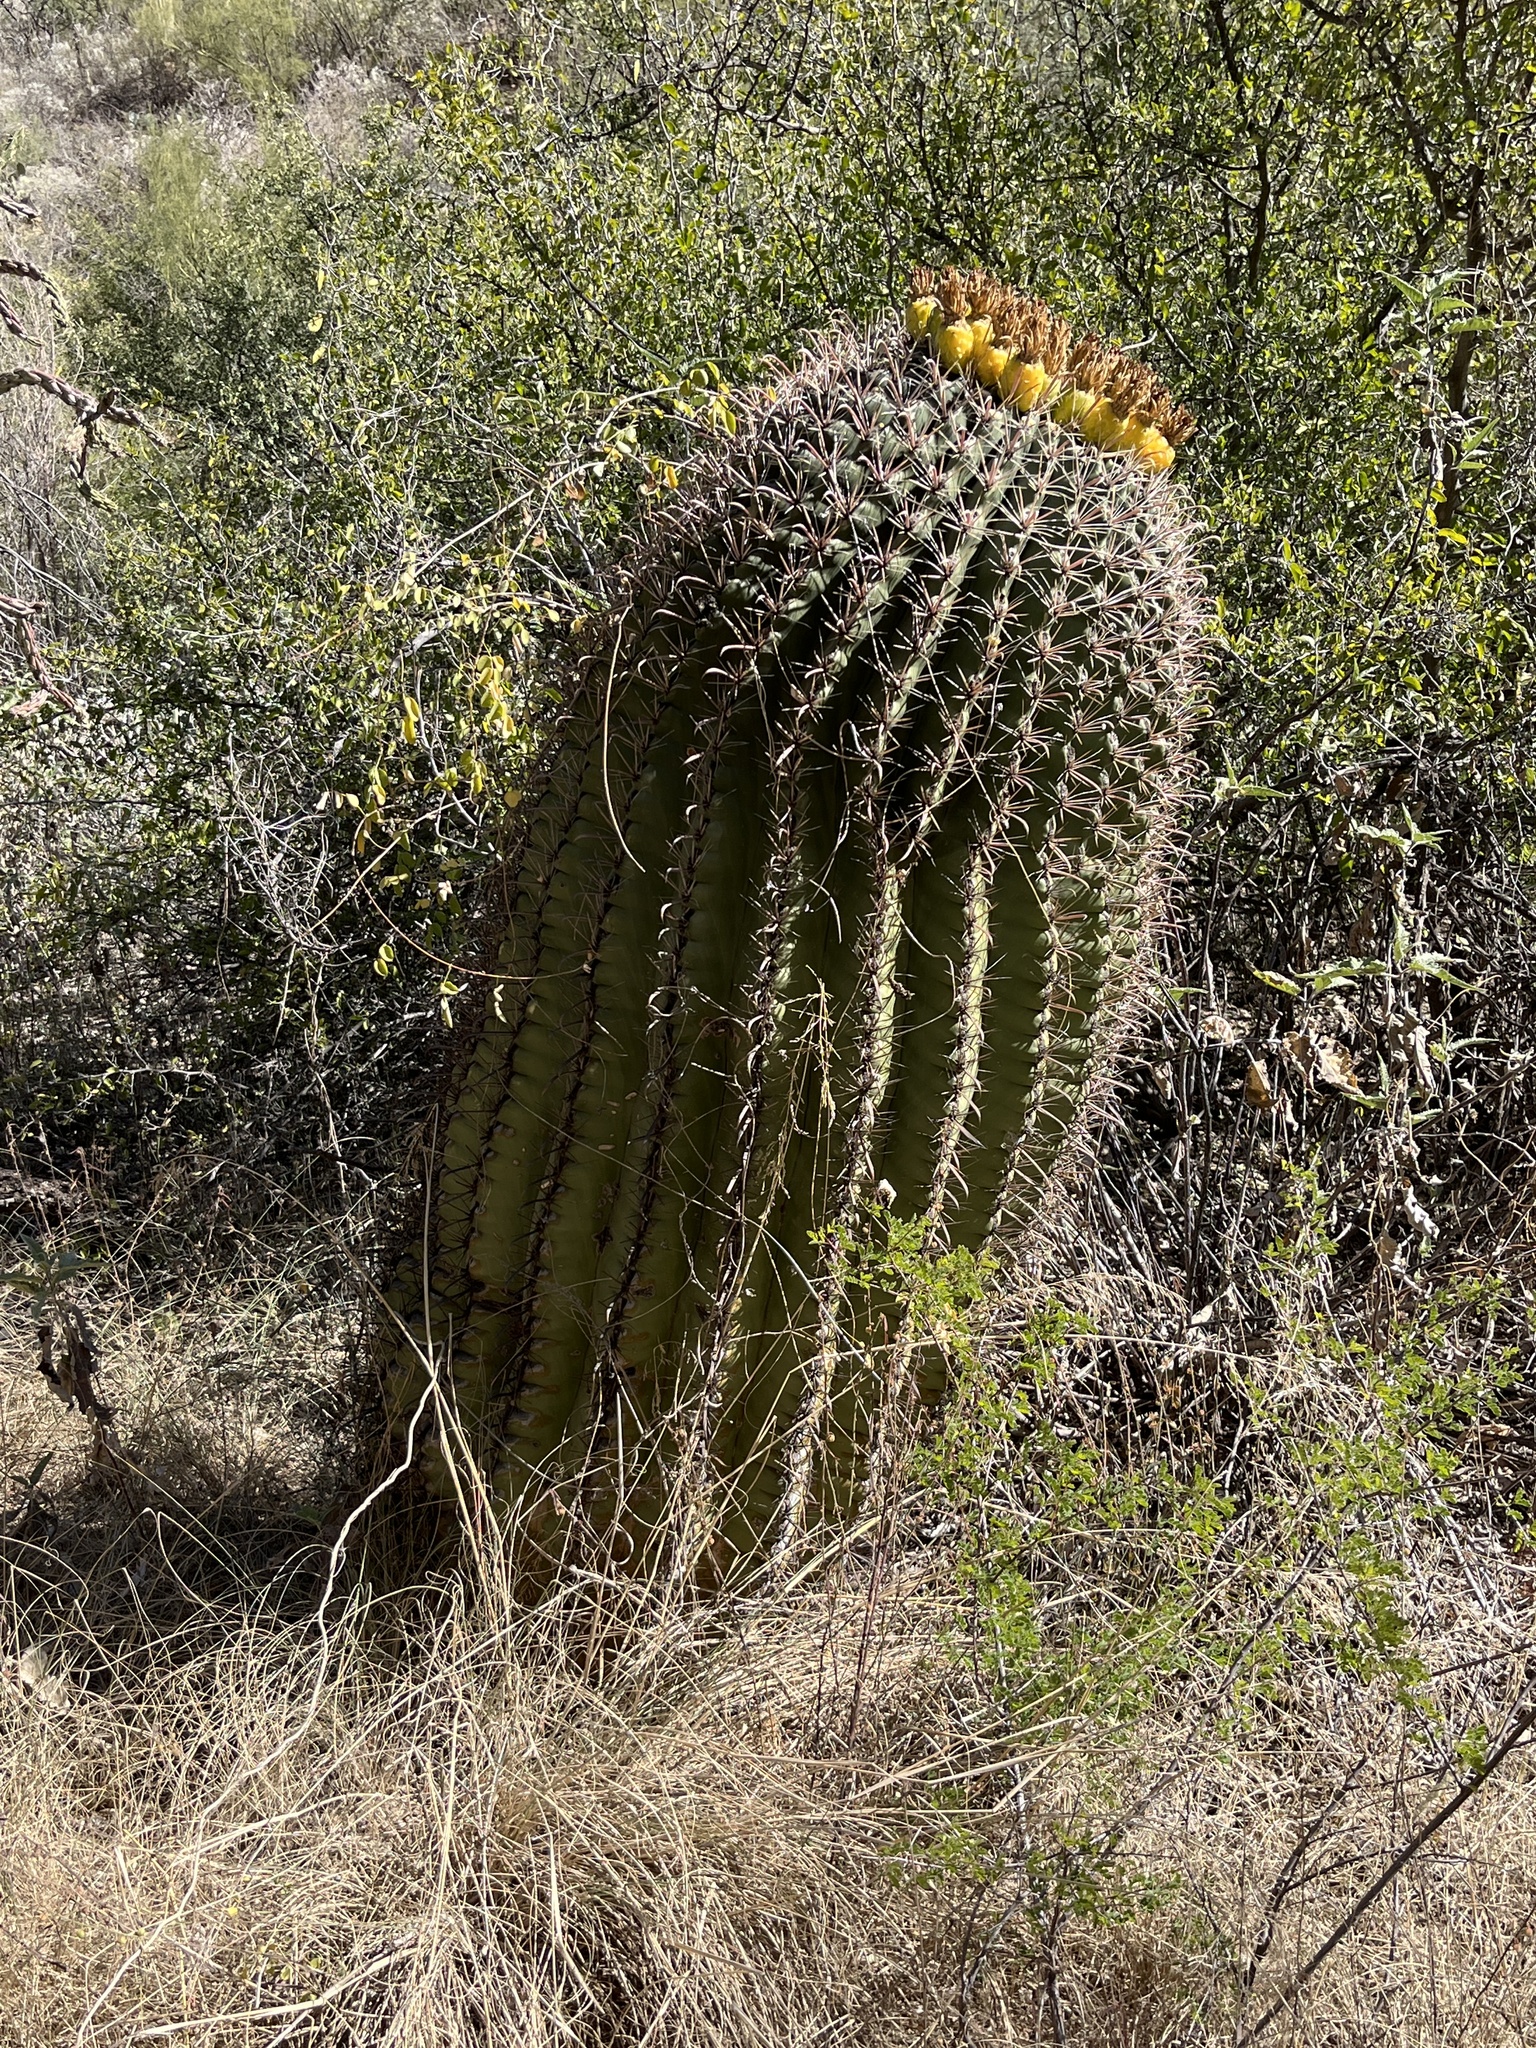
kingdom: Plantae
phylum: Tracheophyta
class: Magnoliopsida
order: Caryophyllales
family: Cactaceae
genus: Ferocactus
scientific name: Ferocactus wislizeni
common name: Candy barrel cactus
